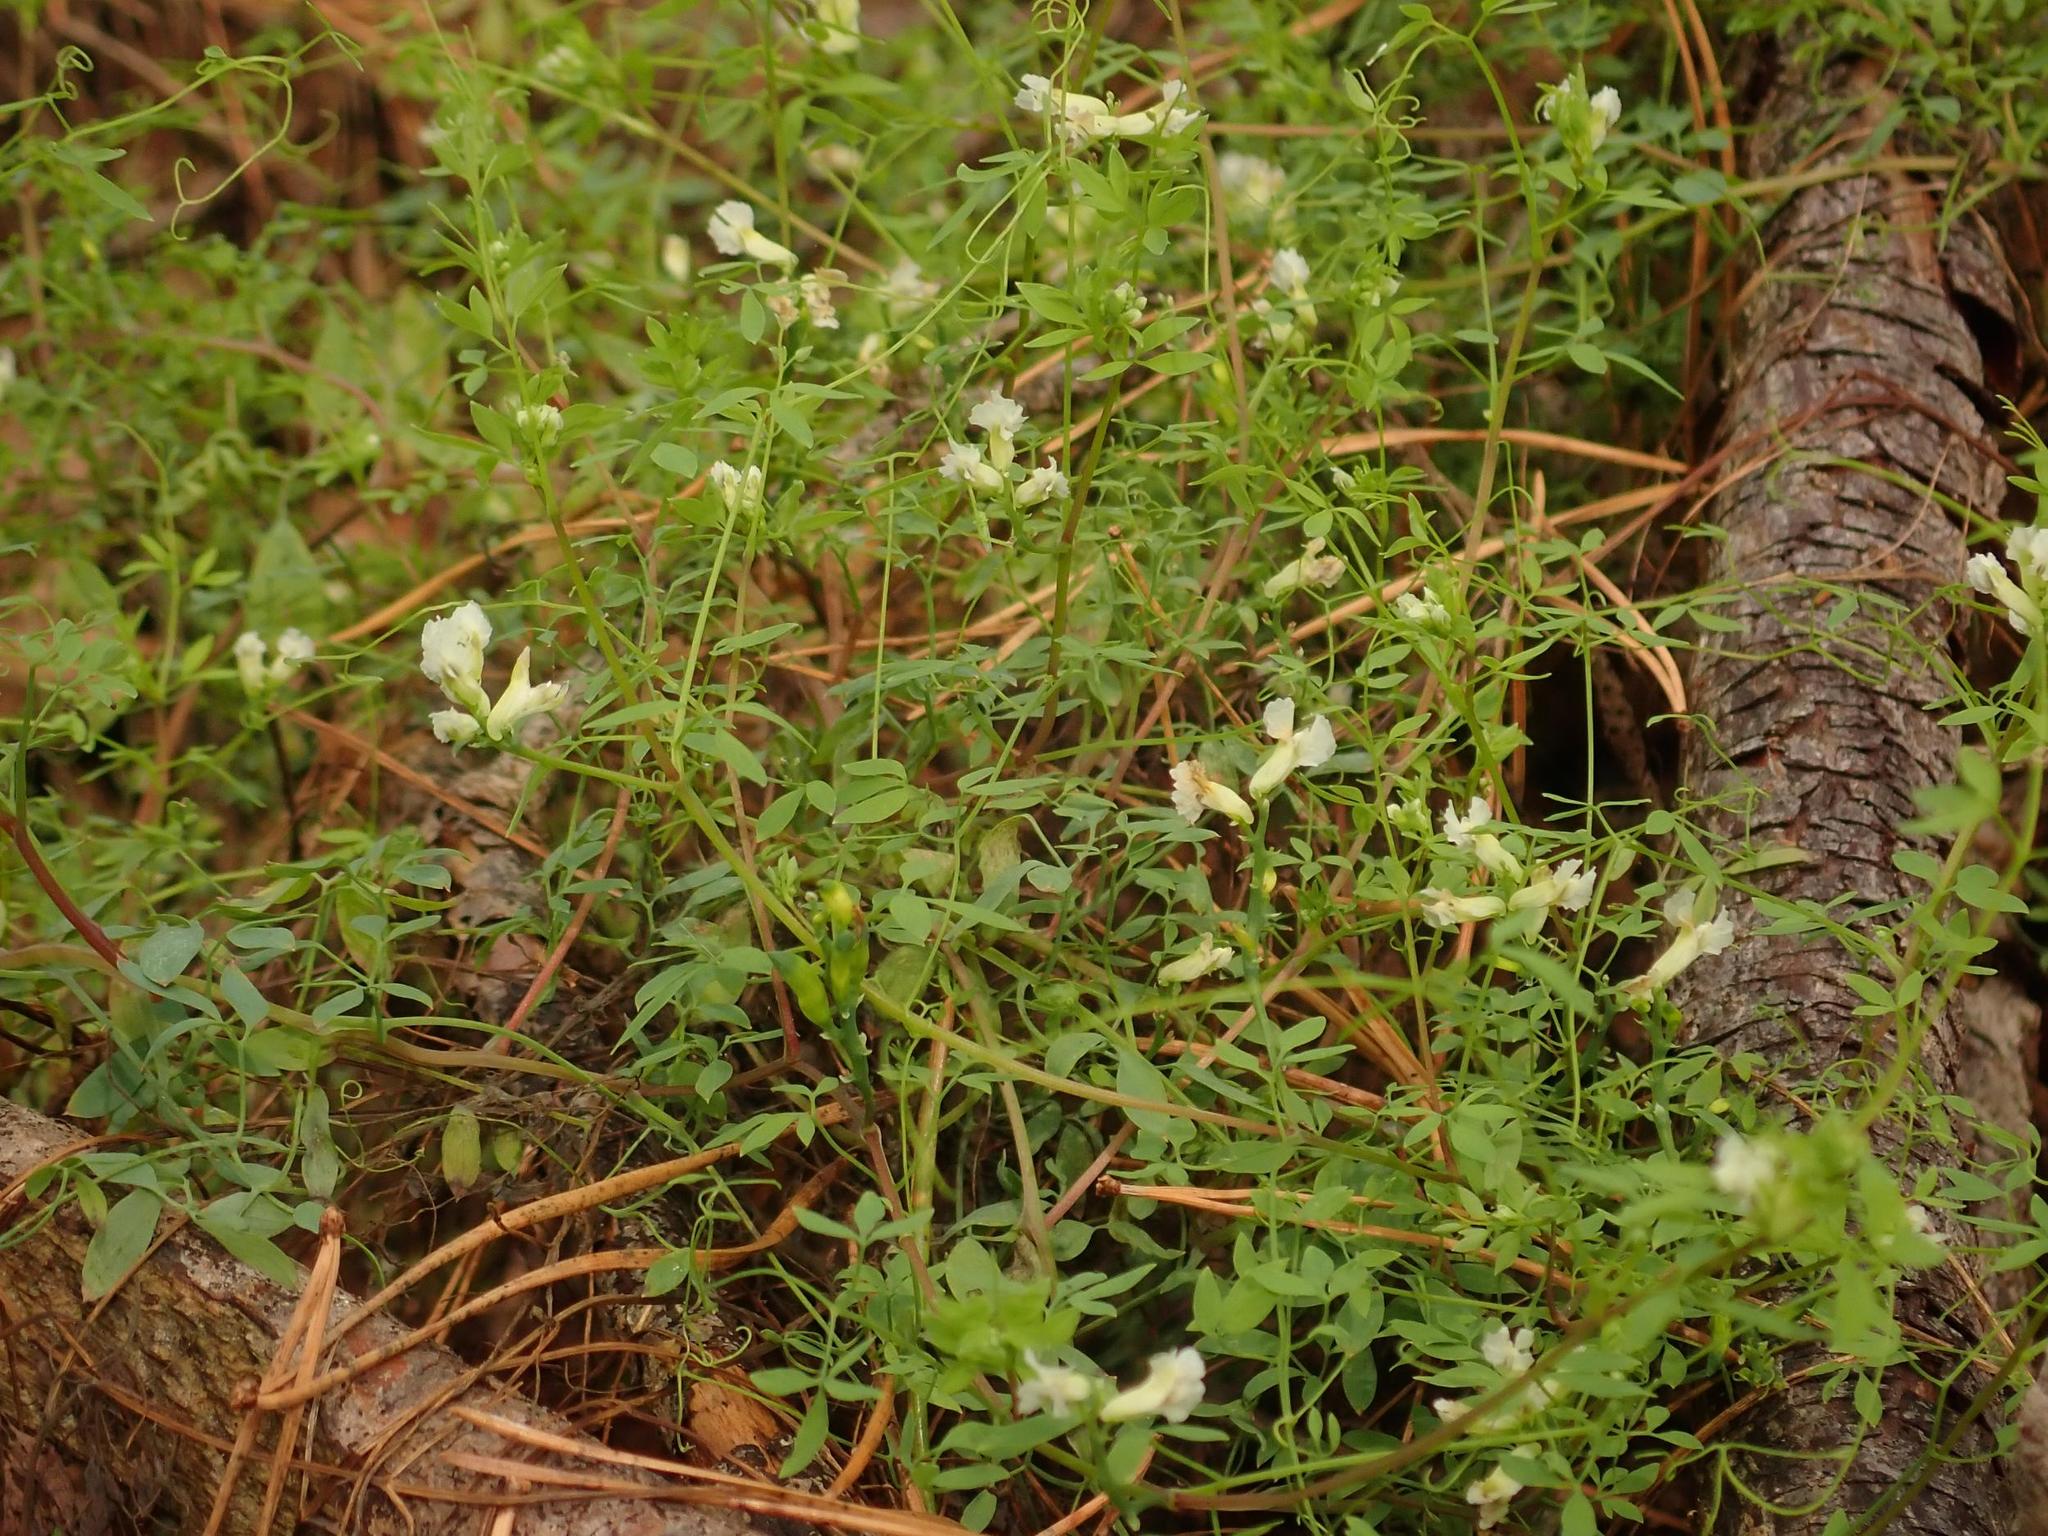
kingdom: Plantae
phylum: Tracheophyta
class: Magnoliopsida
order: Ranunculales
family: Papaveraceae
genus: Ceratocapnos
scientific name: Ceratocapnos claviculata
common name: Climbing corydalis
